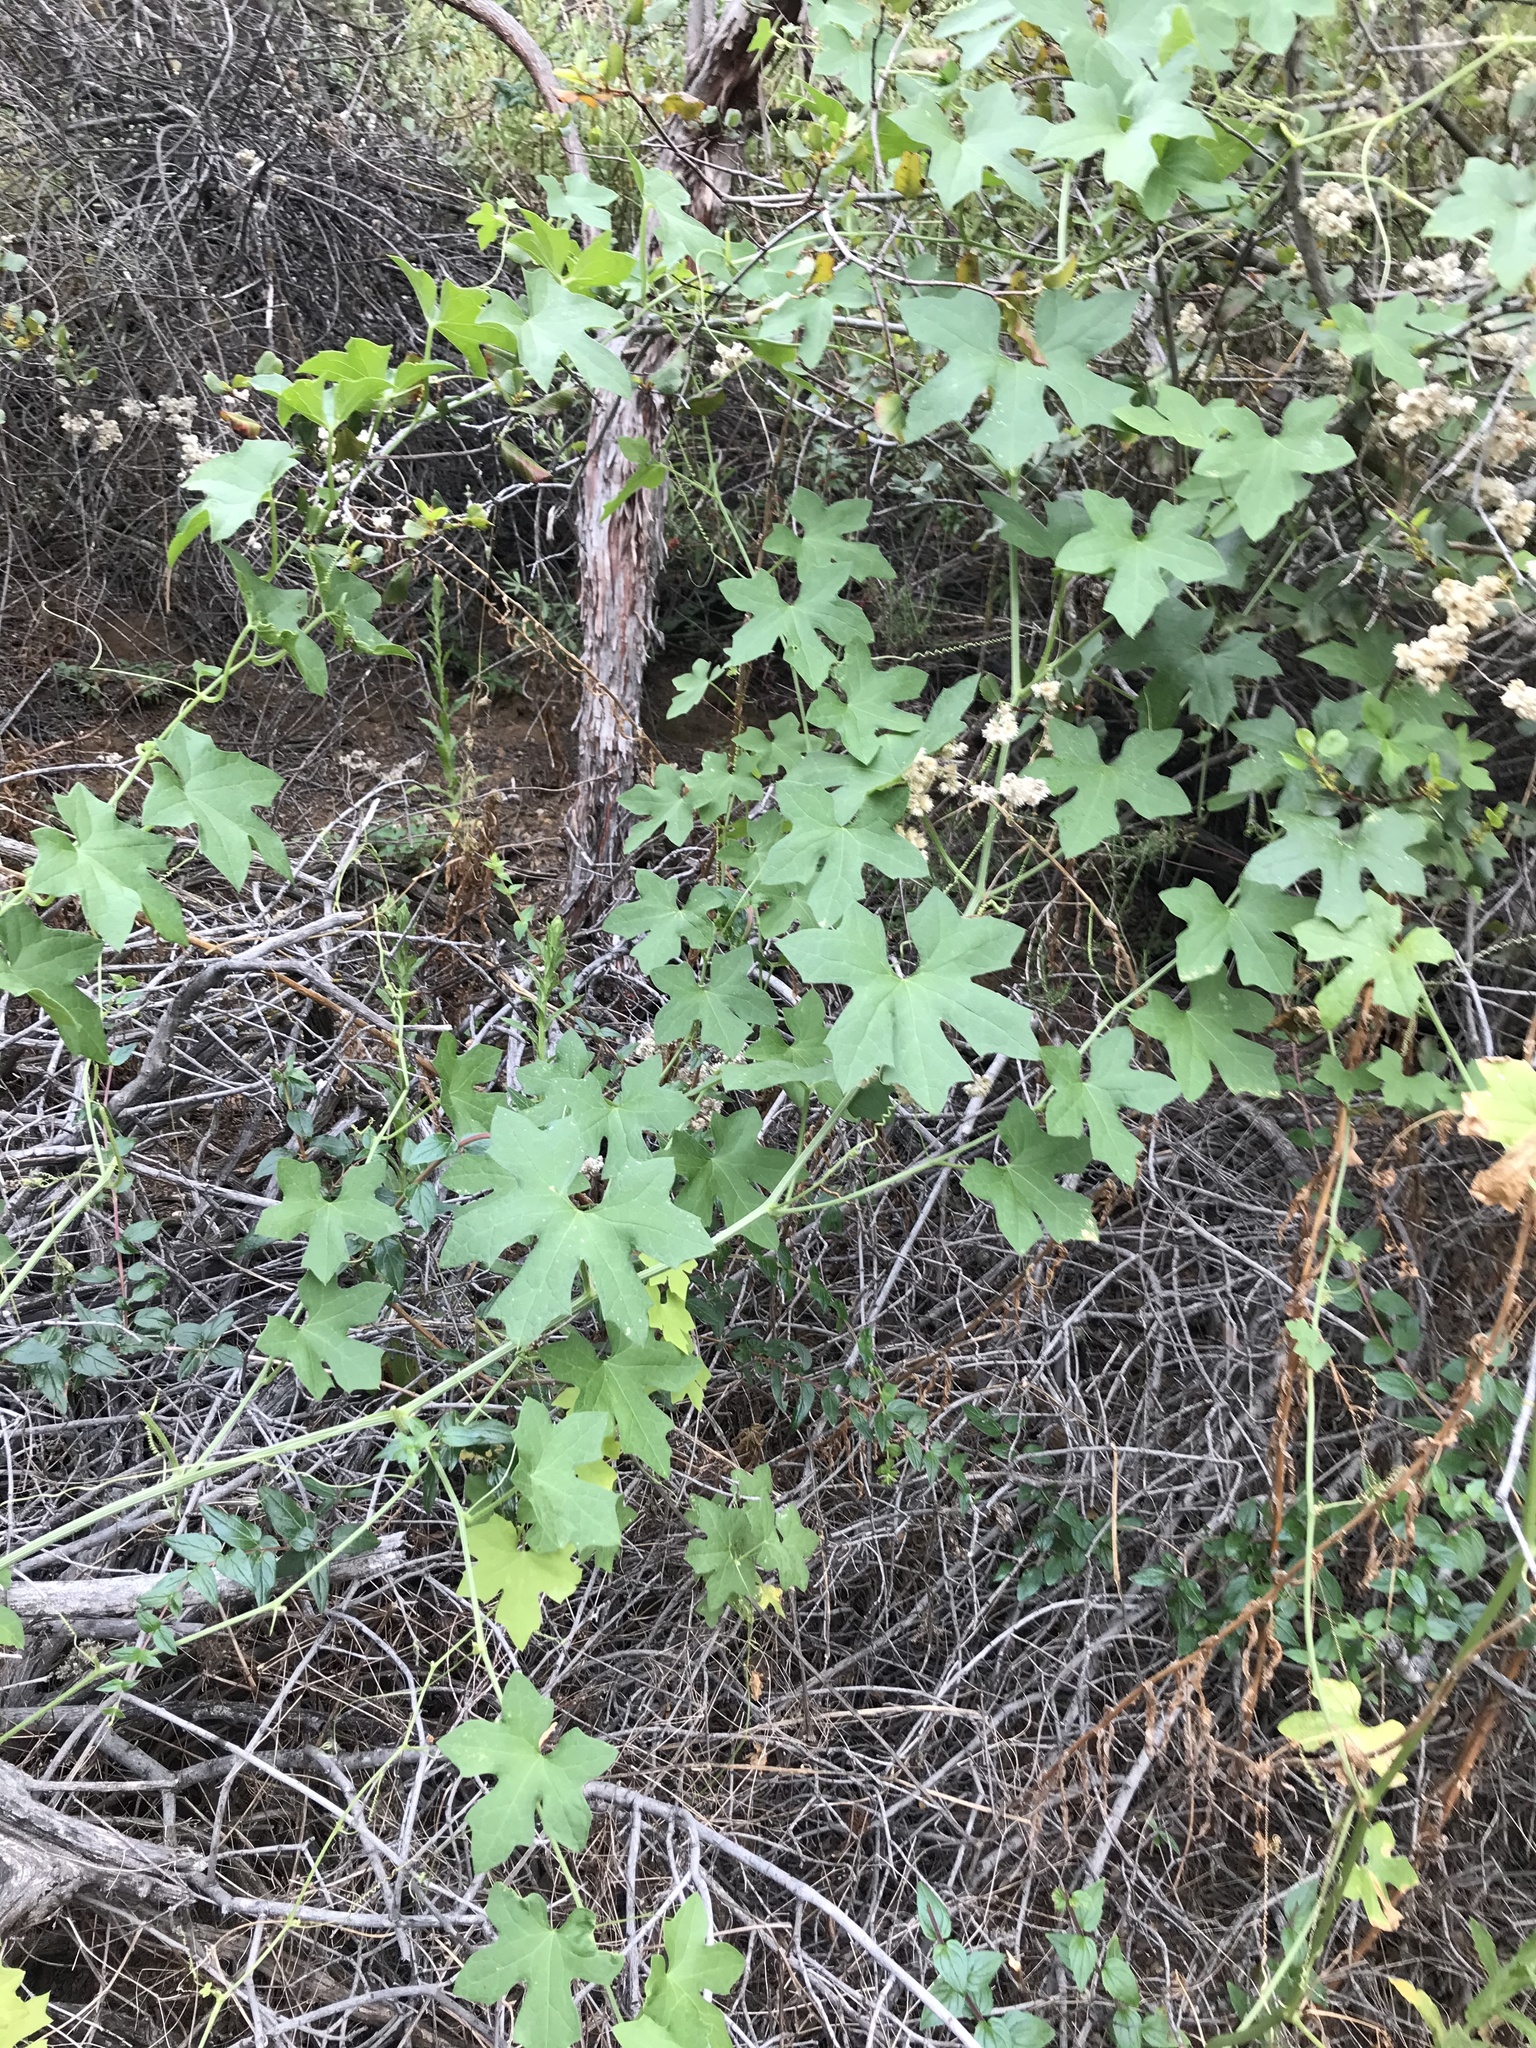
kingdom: Plantae
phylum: Tracheophyta
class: Magnoliopsida
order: Cucurbitales
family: Cucurbitaceae
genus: Marah
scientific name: Marah macrocarpa
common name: Cucamonga manroot
